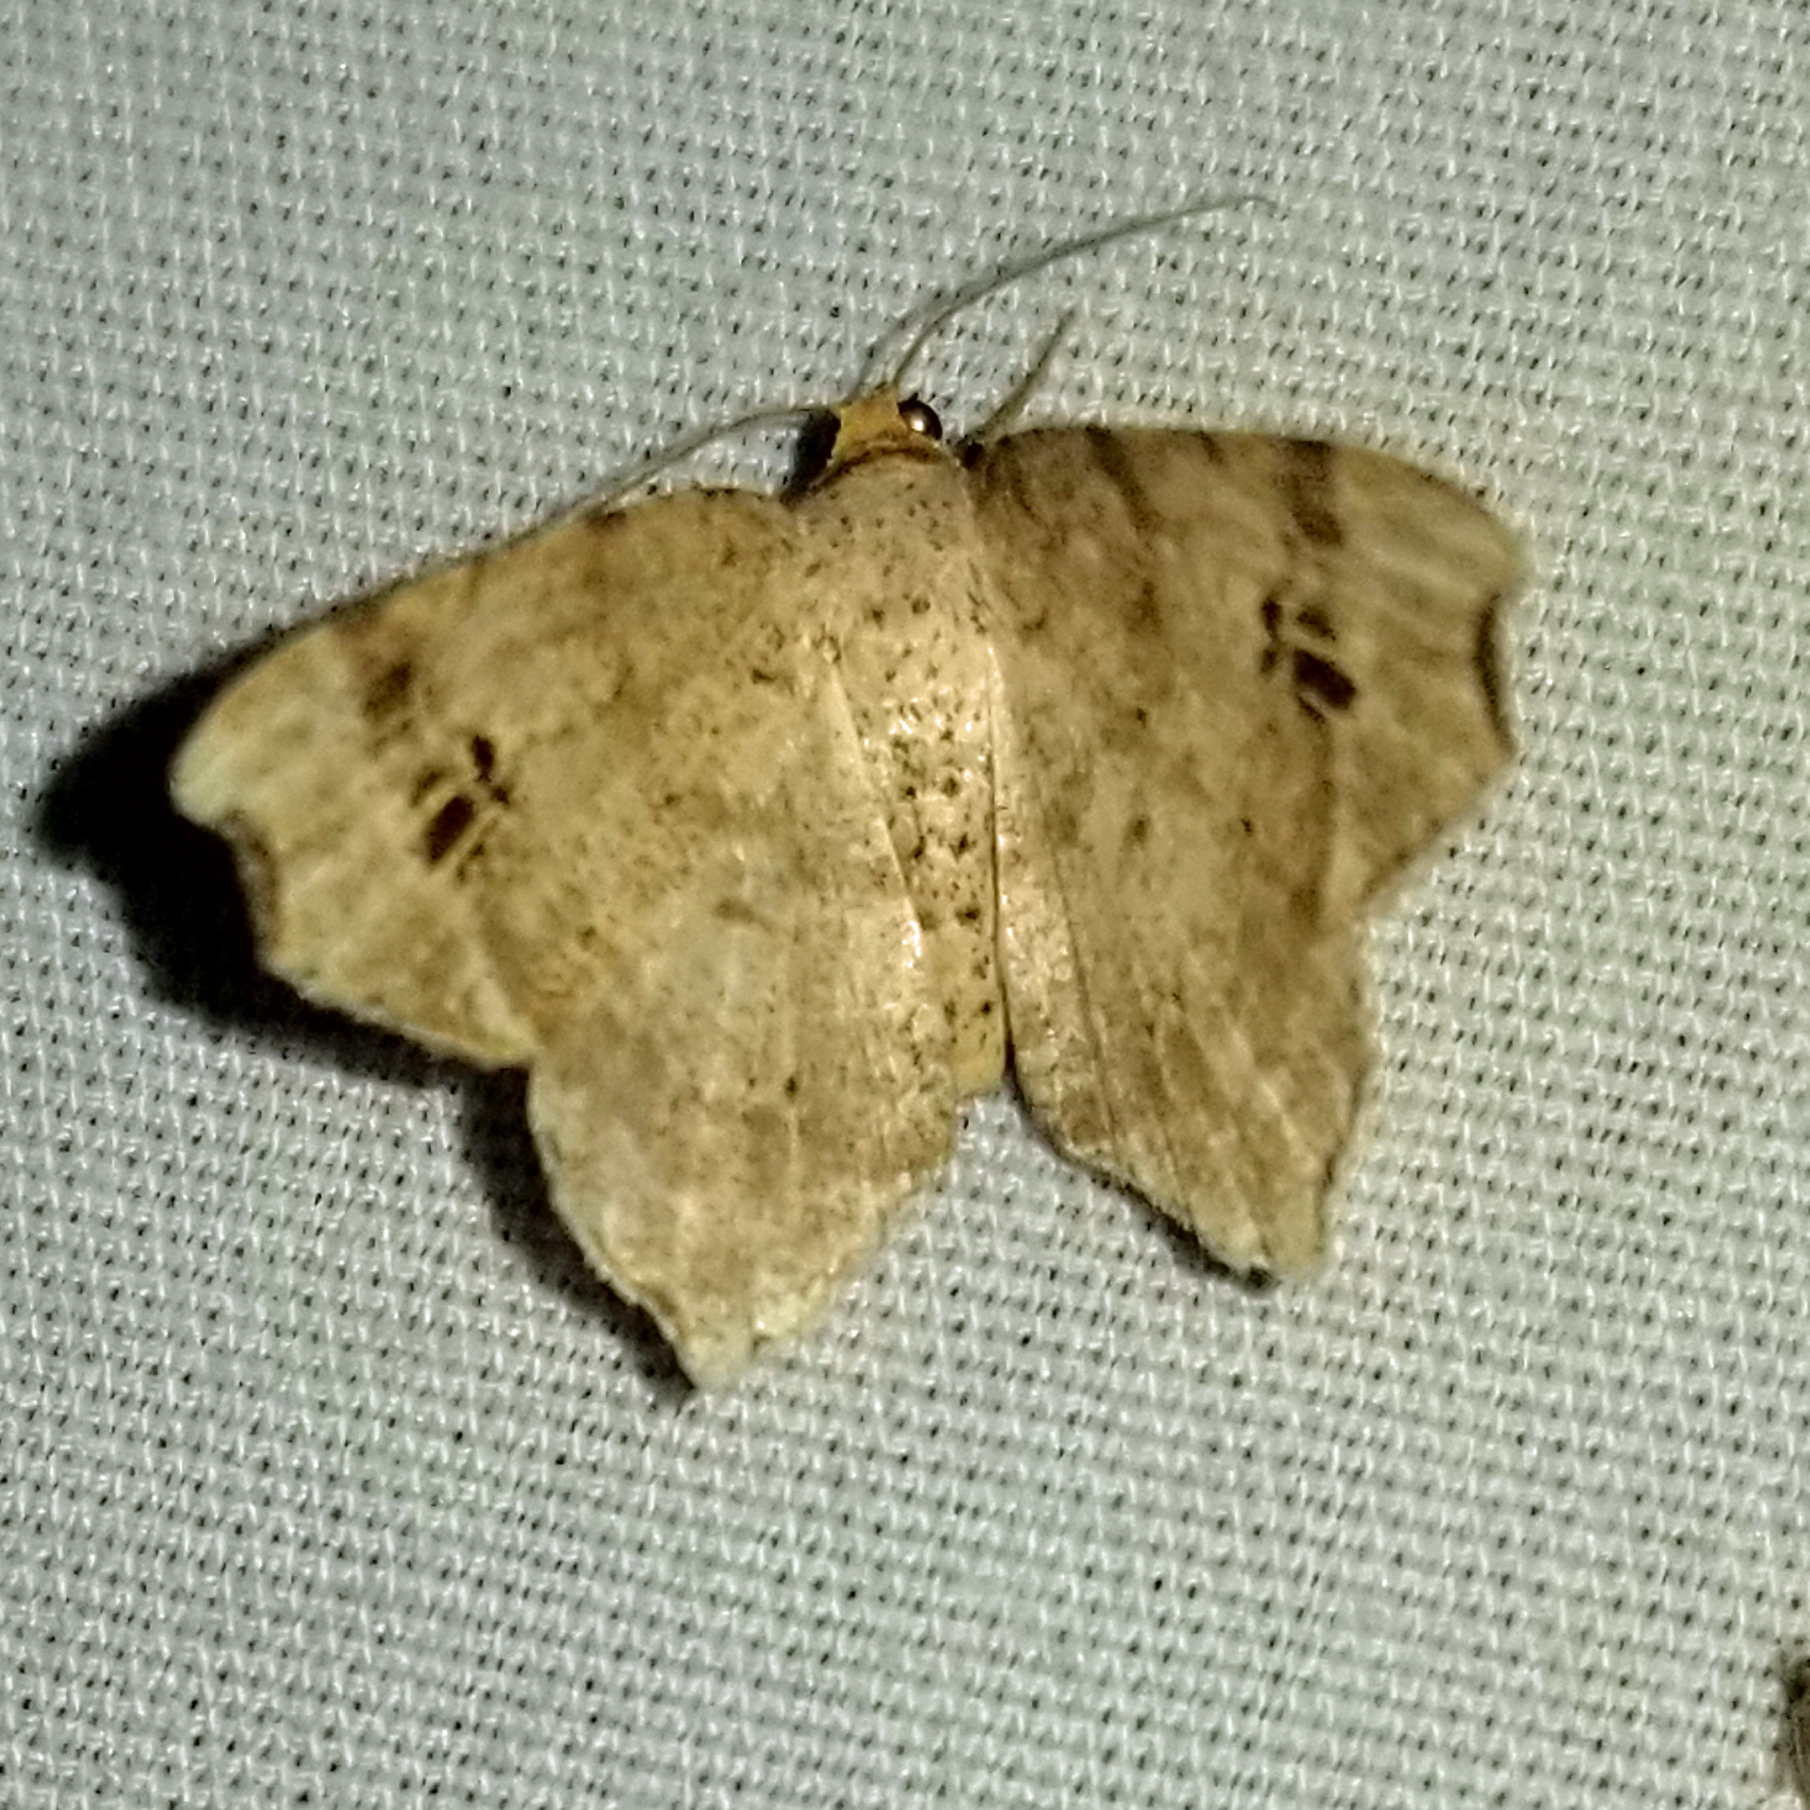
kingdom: Animalia
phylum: Arthropoda
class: Insecta
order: Lepidoptera
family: Geometridae
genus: Macaria
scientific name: Macaria aemulataria
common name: Common angle
